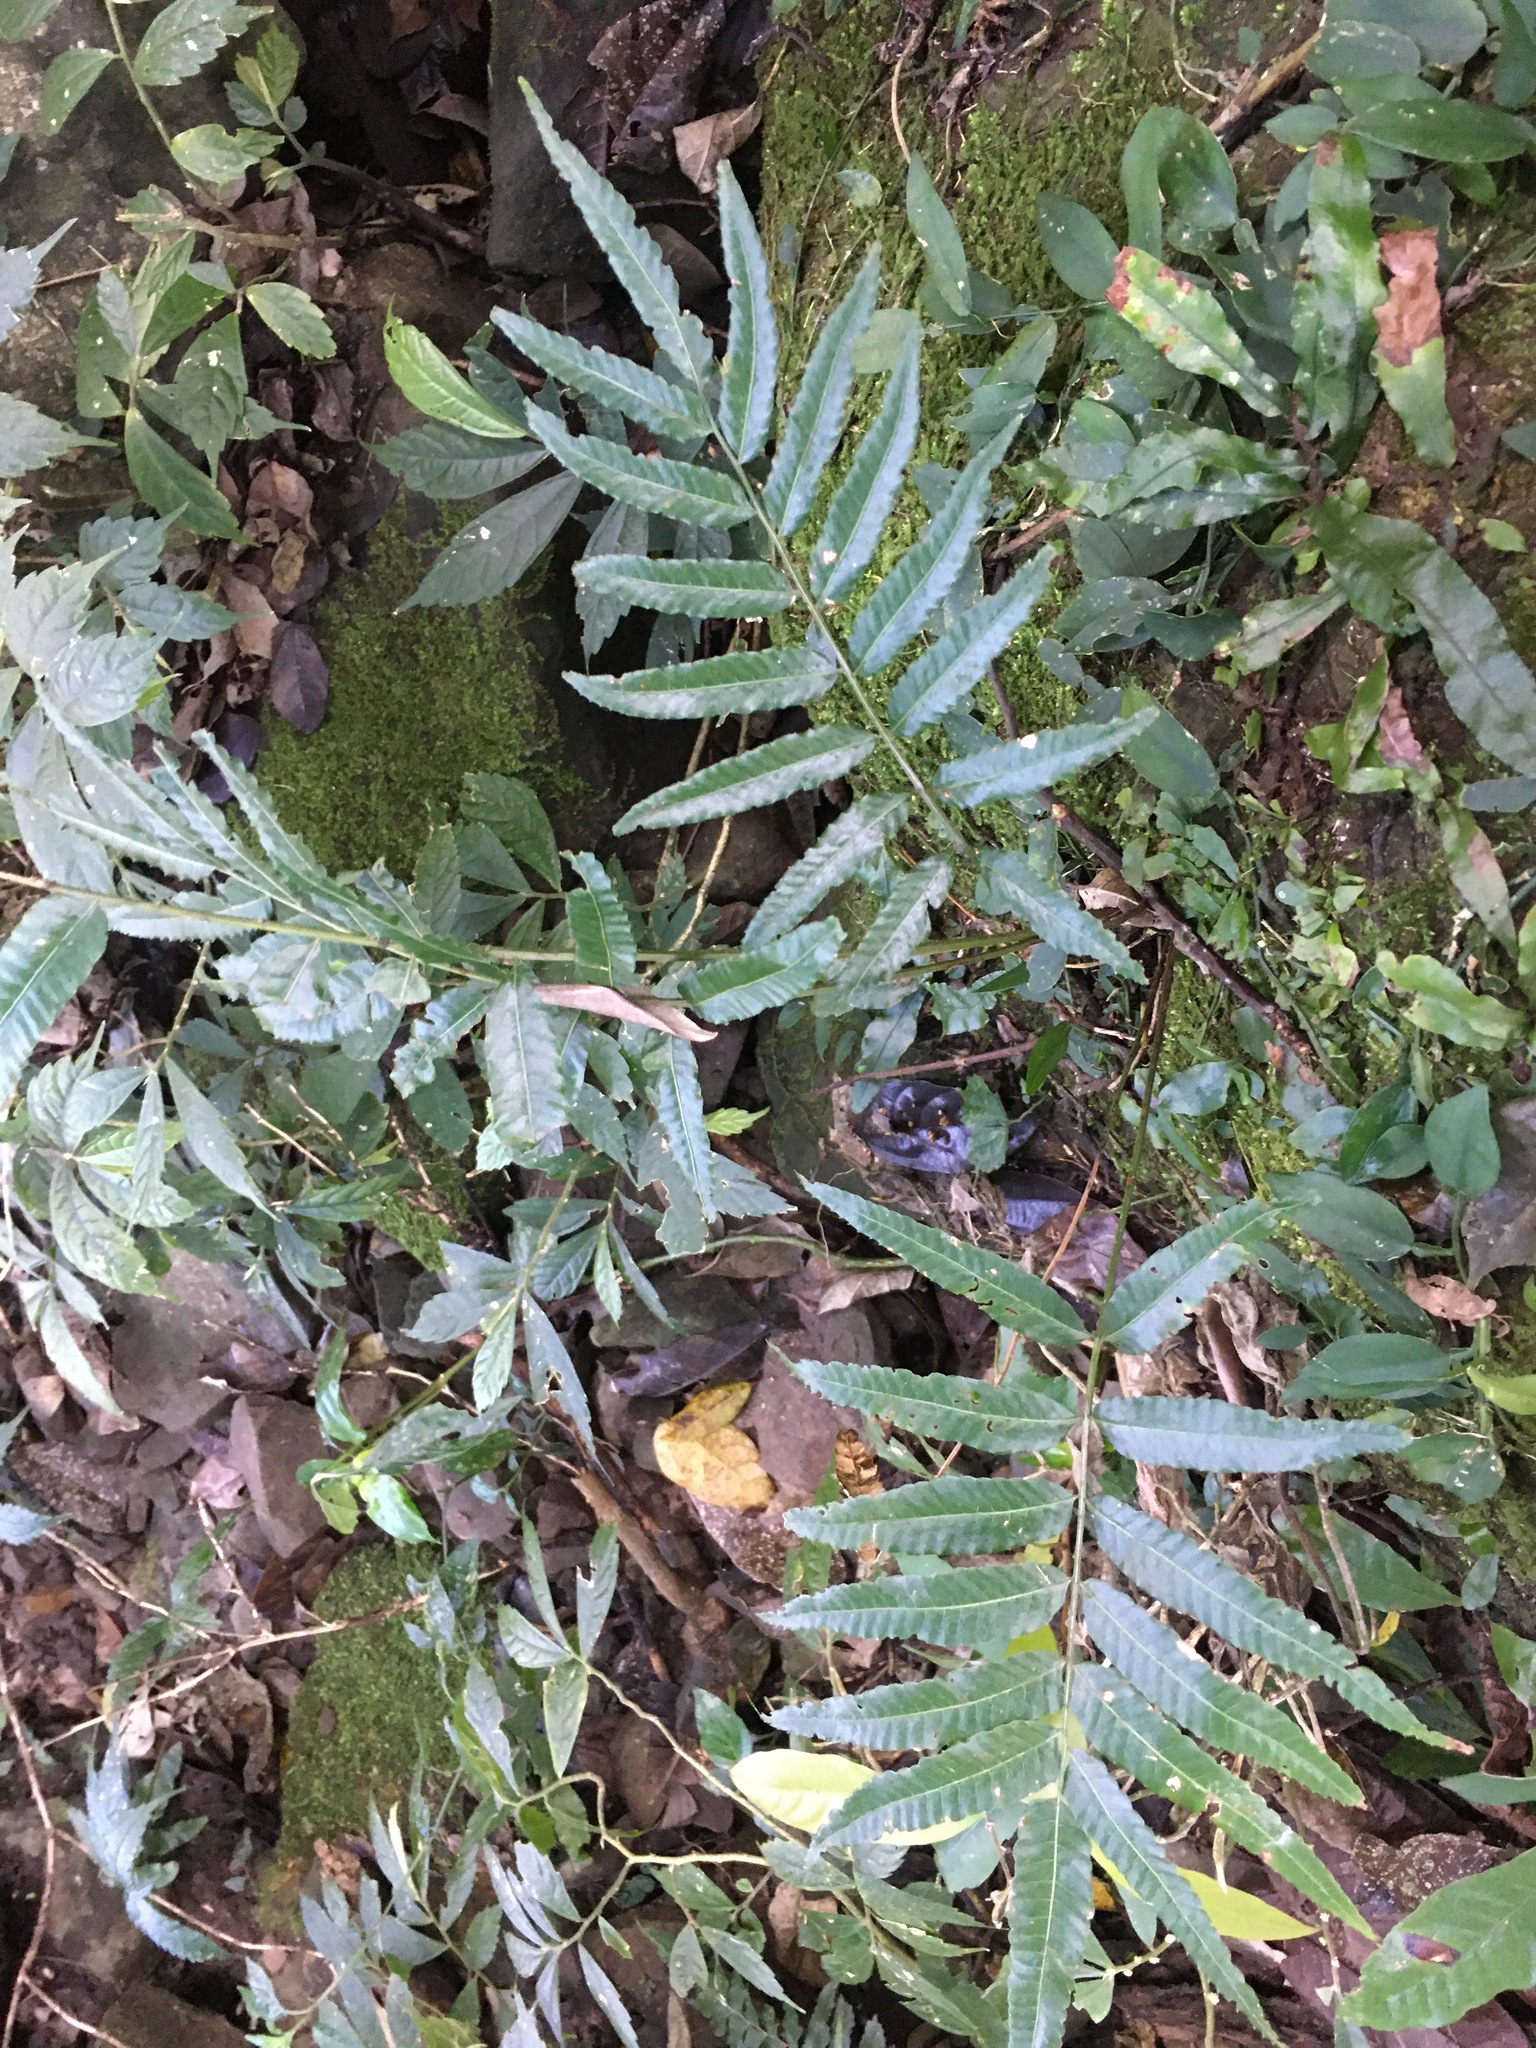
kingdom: Plantae
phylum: Tracheophyta
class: Polypodiopsida
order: Polypodiales
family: Dryopteridaceae
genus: Bolbitis
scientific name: Bolbitis angustipinna
